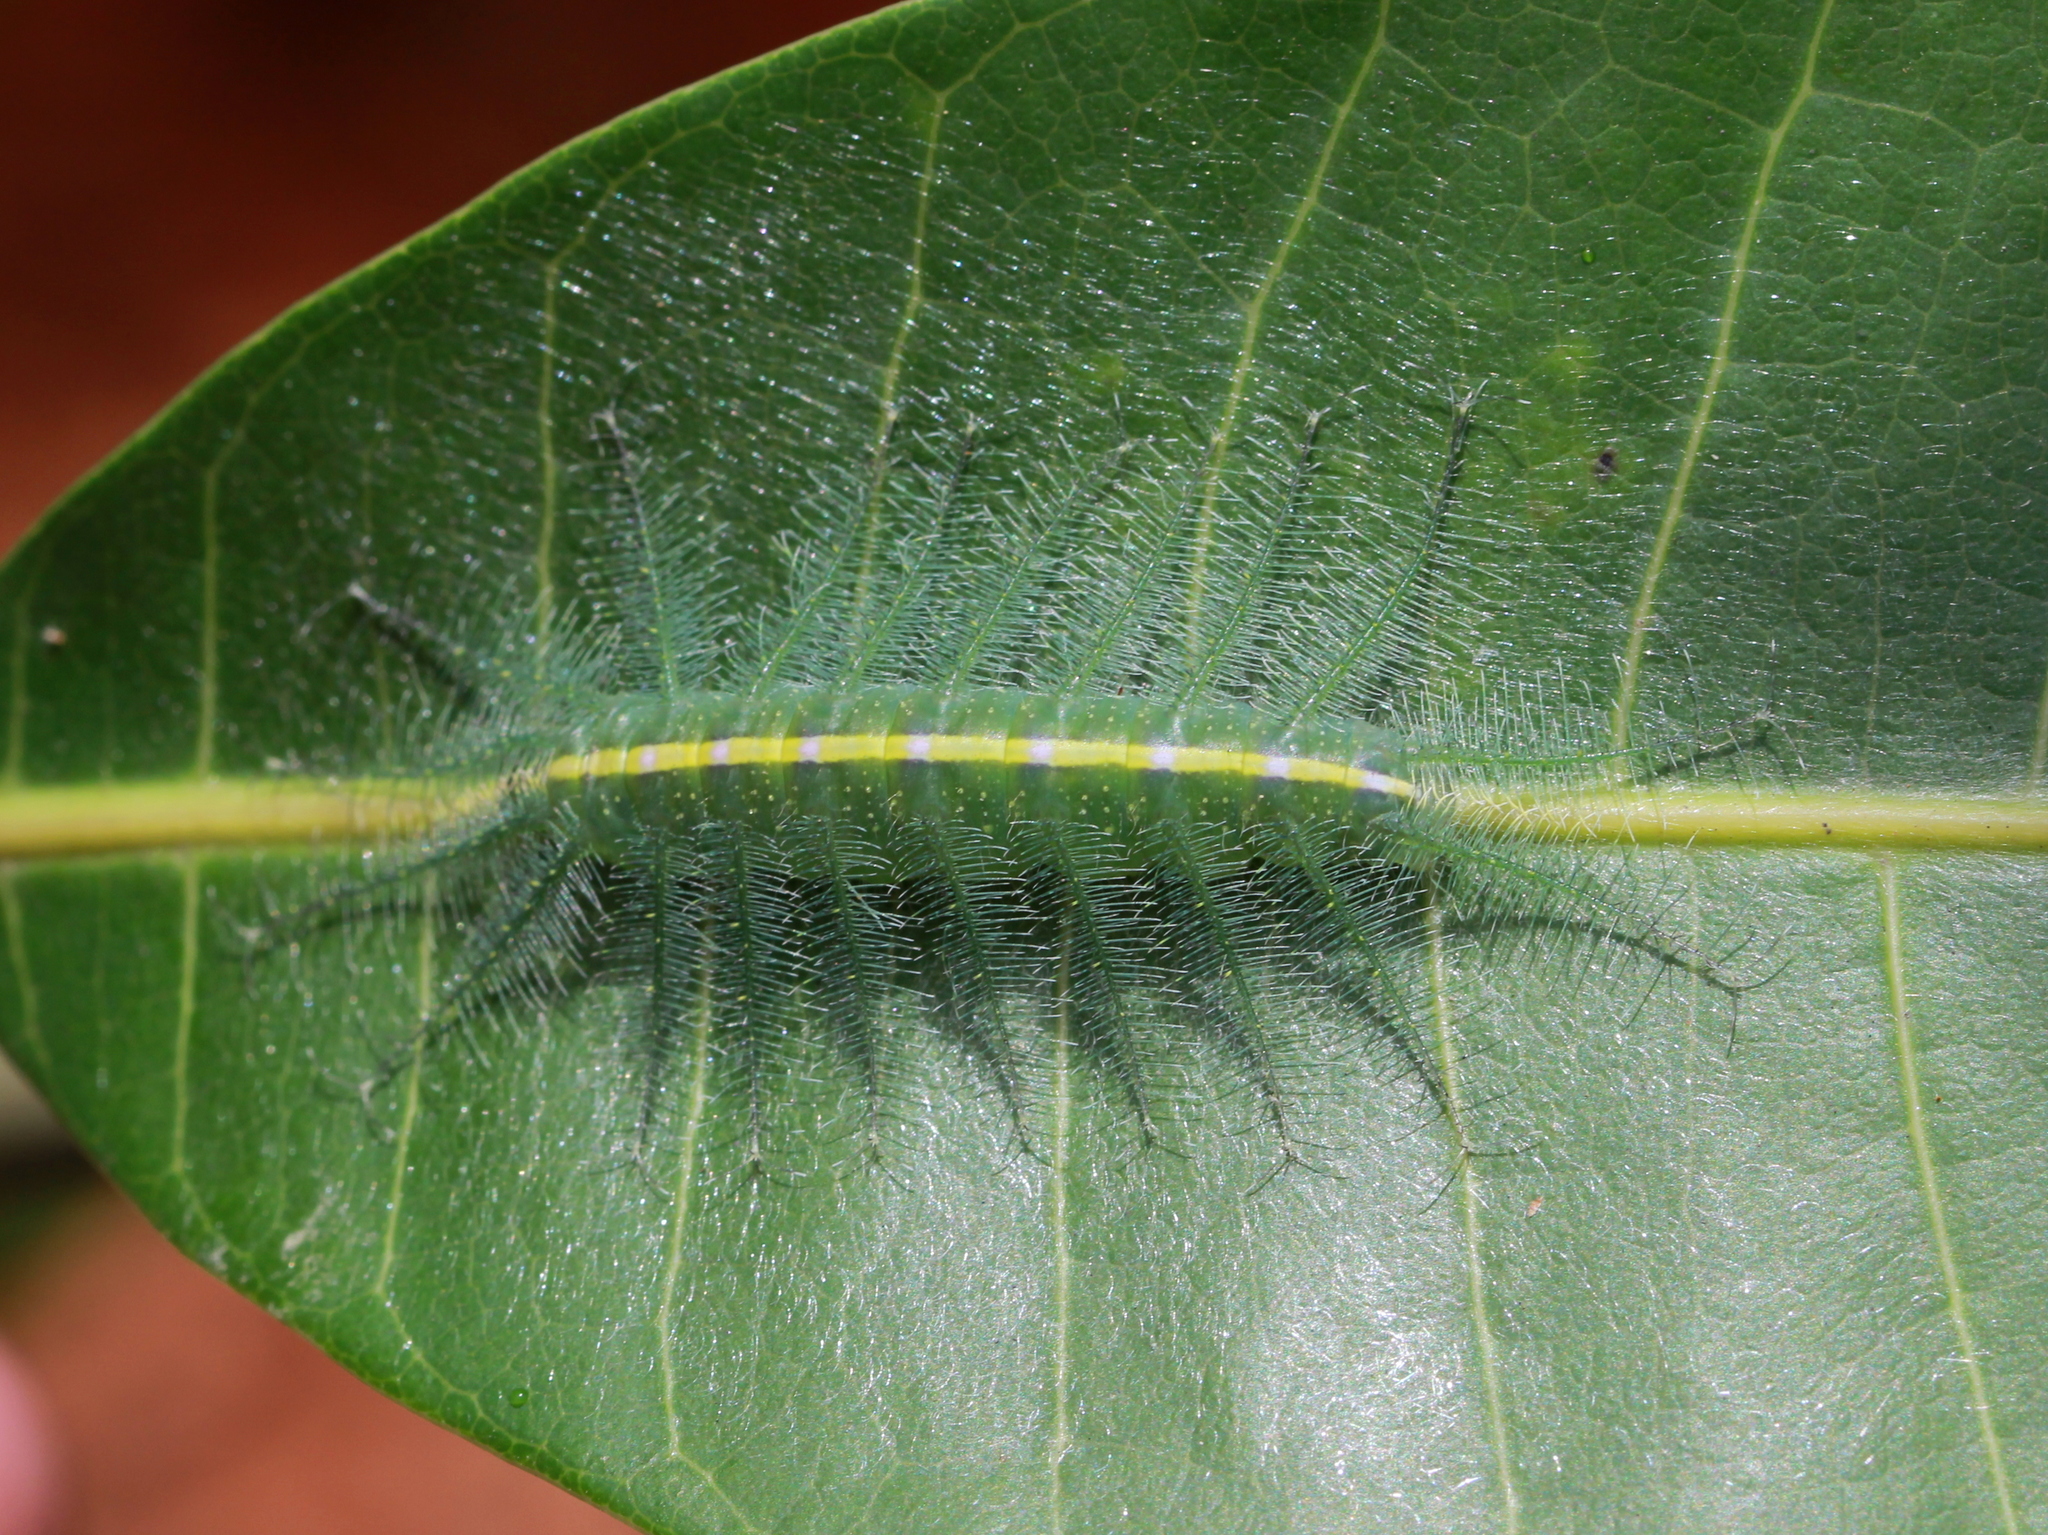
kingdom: Animalia
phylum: Arthropoda
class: Insecta
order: Lepidoptera
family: Nymphalidae
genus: Euthalia
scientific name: Euthalia aconthea
